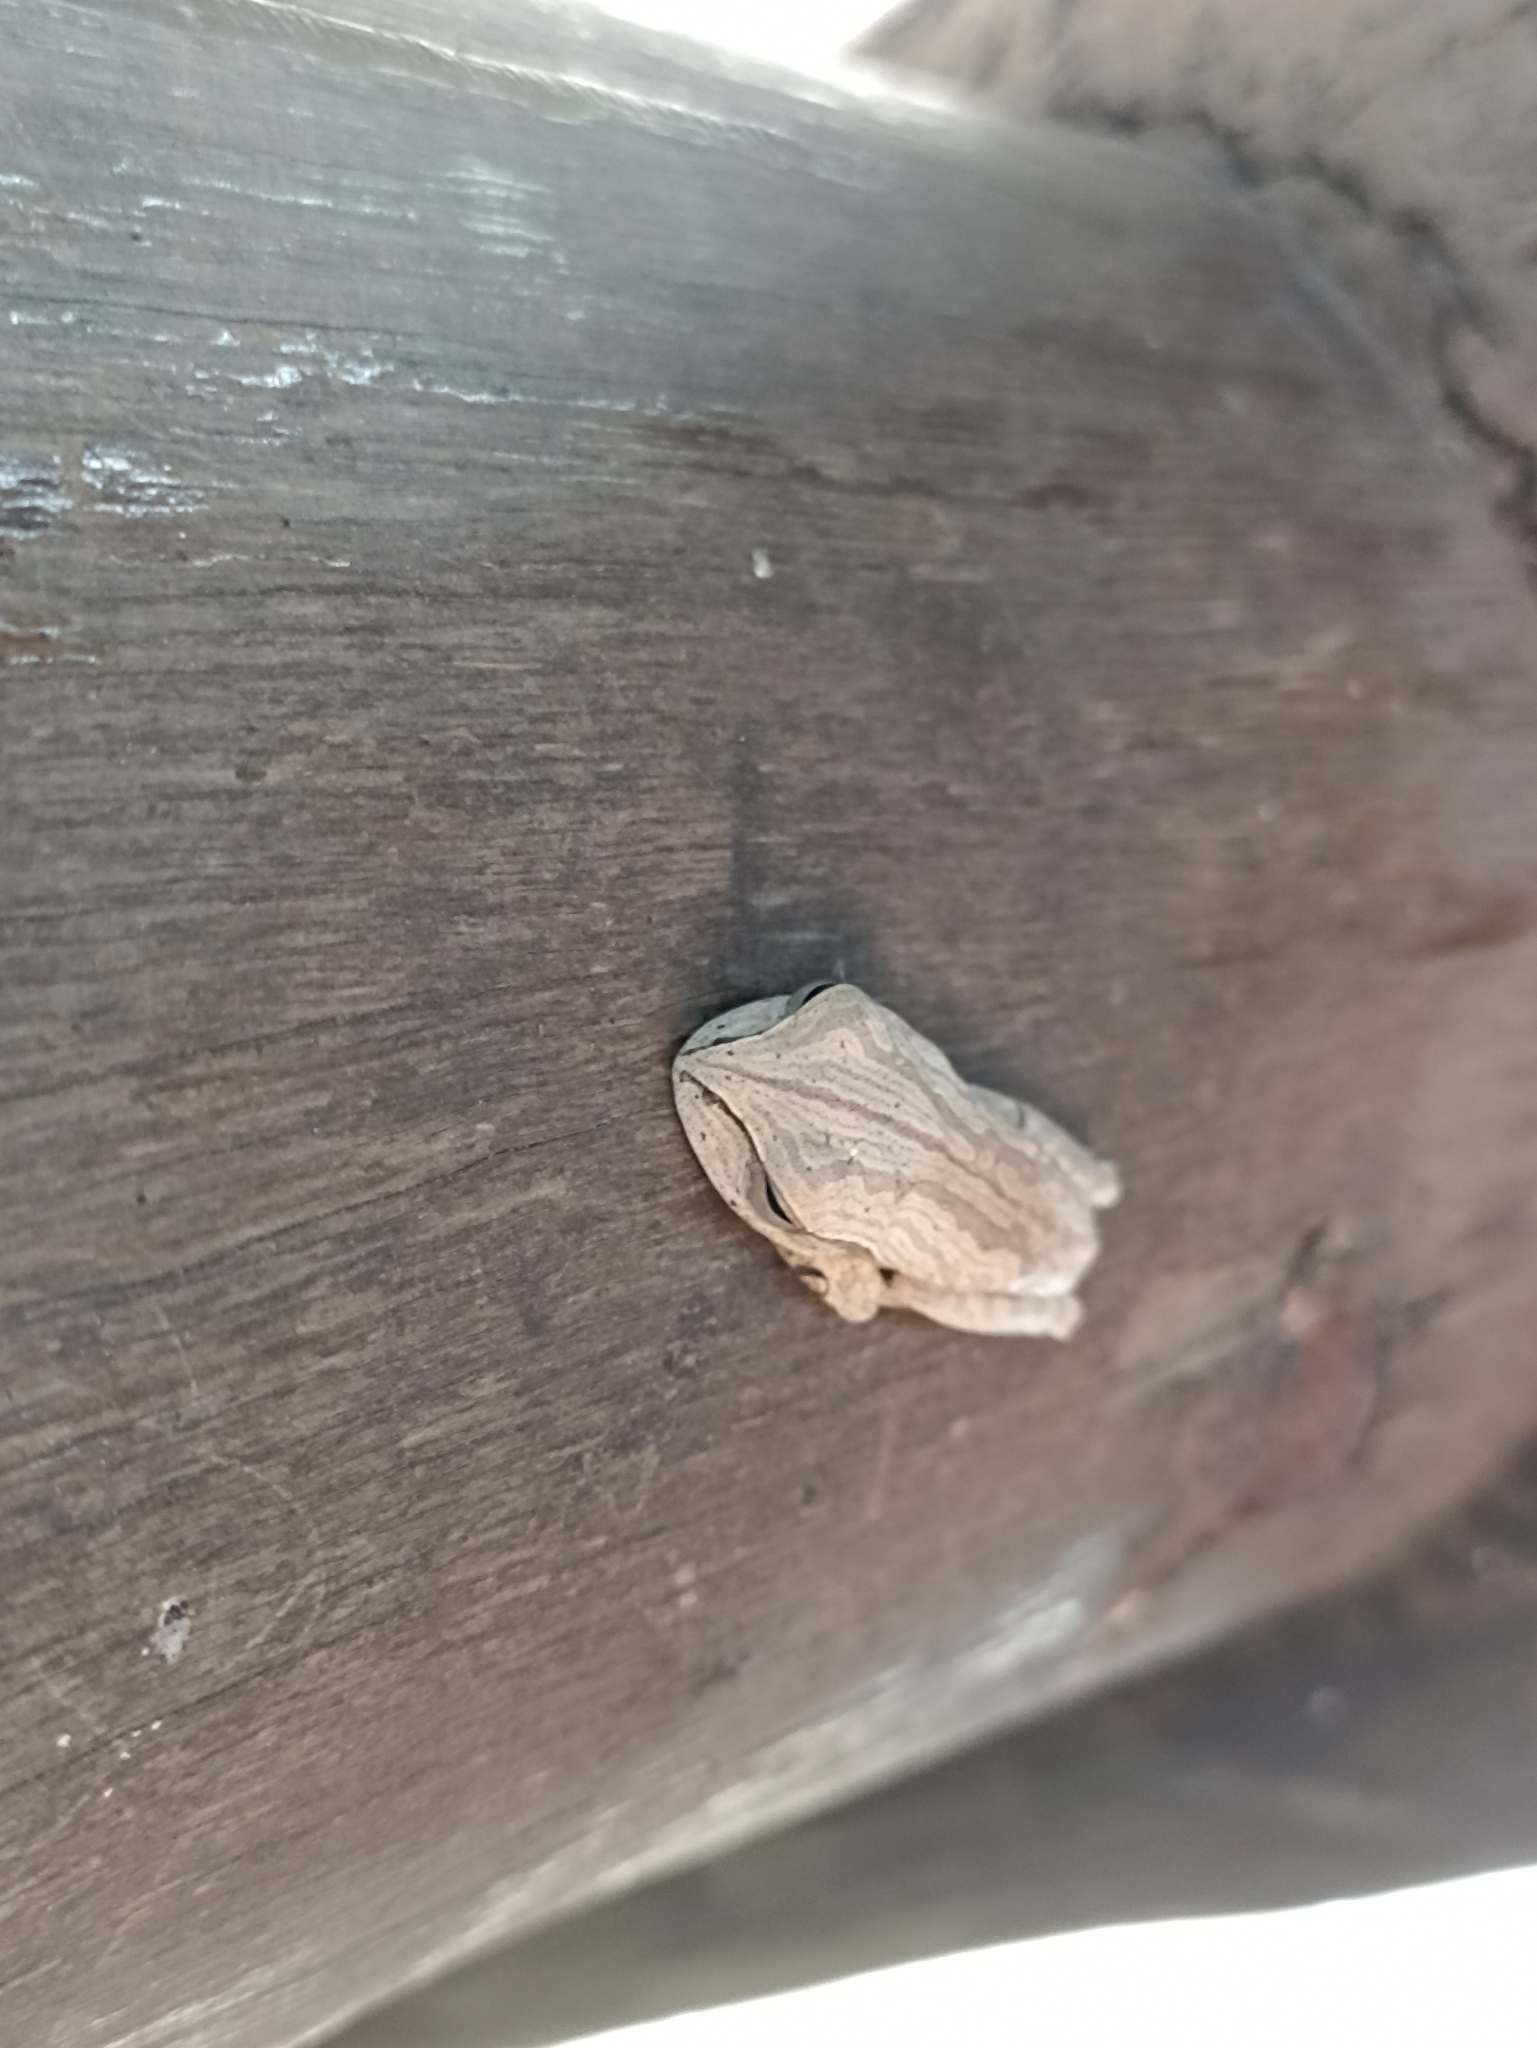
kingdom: Animalia
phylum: Chordata
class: Amphibia
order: Anura
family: Hylidae
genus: Boana
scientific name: Boana bischoffi
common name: Bischoff's treefrog
